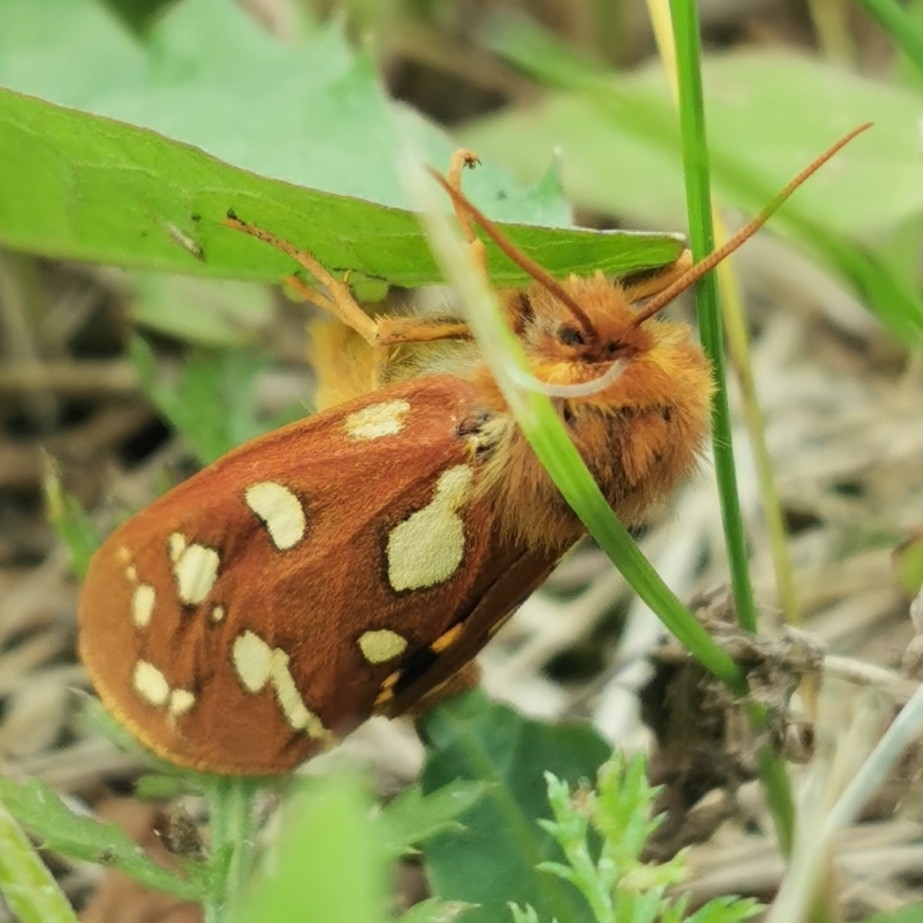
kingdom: Animalia
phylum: Arthropoda
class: Insecta
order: Lepidoptera
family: Erebidae
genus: Hyphoraia
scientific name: Hyphoraia aulica
